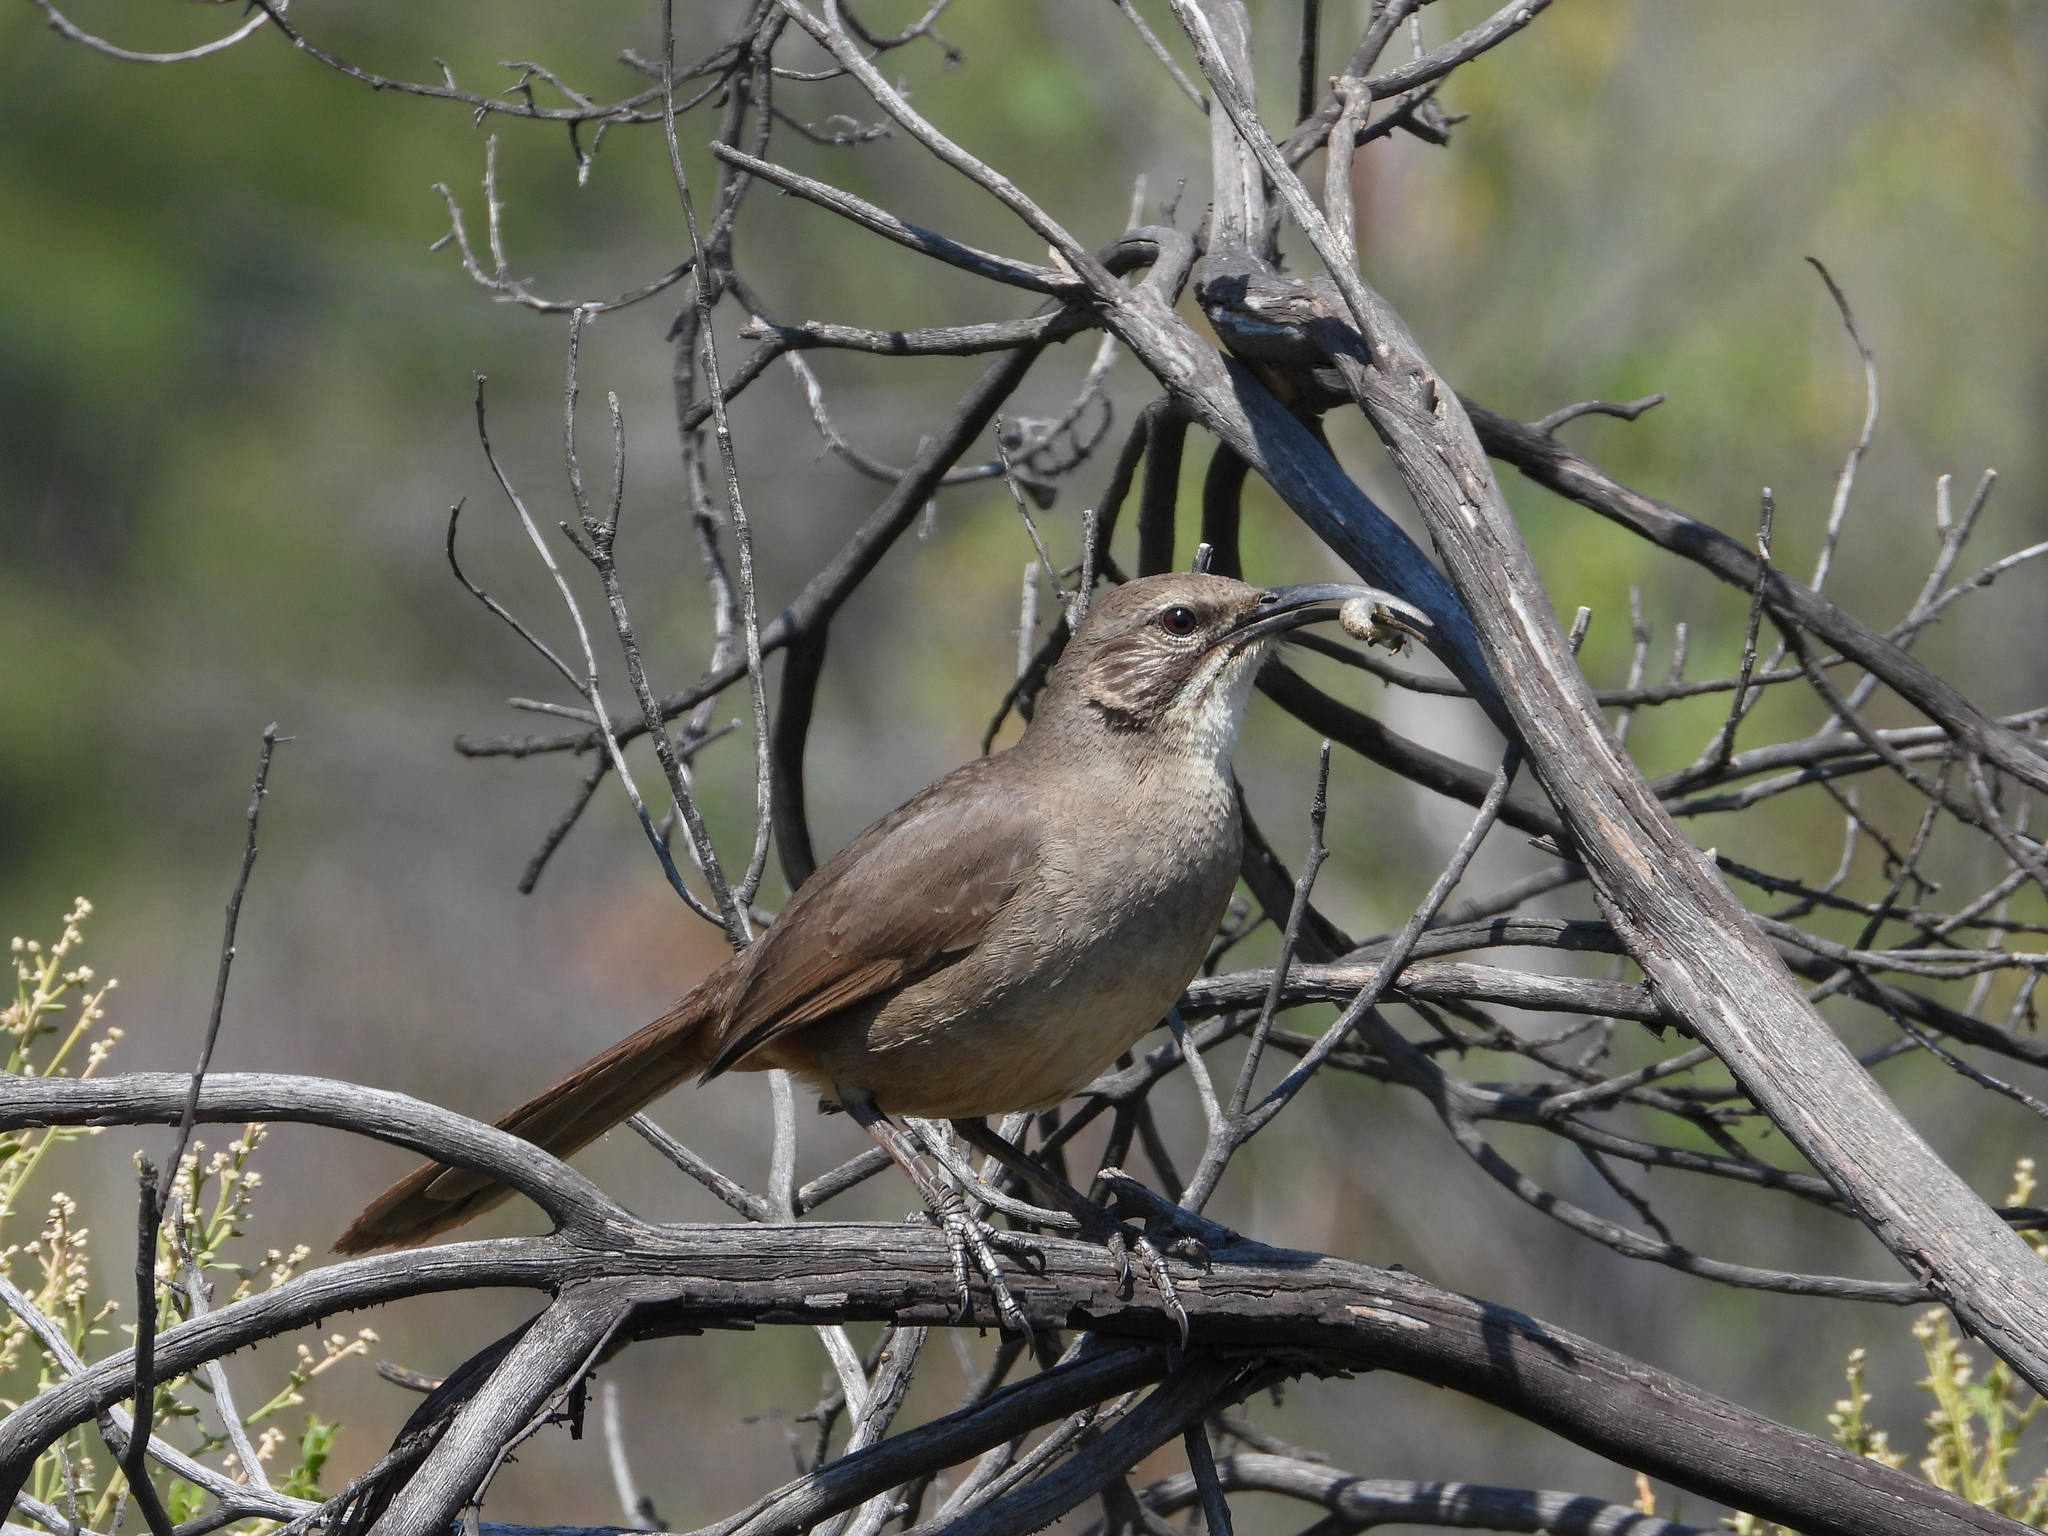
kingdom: Animalia
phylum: Chordata
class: Aves
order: Passeriformes
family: Mimidae
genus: Toxostoma
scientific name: Toxostoma redivivum
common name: California thrasher
